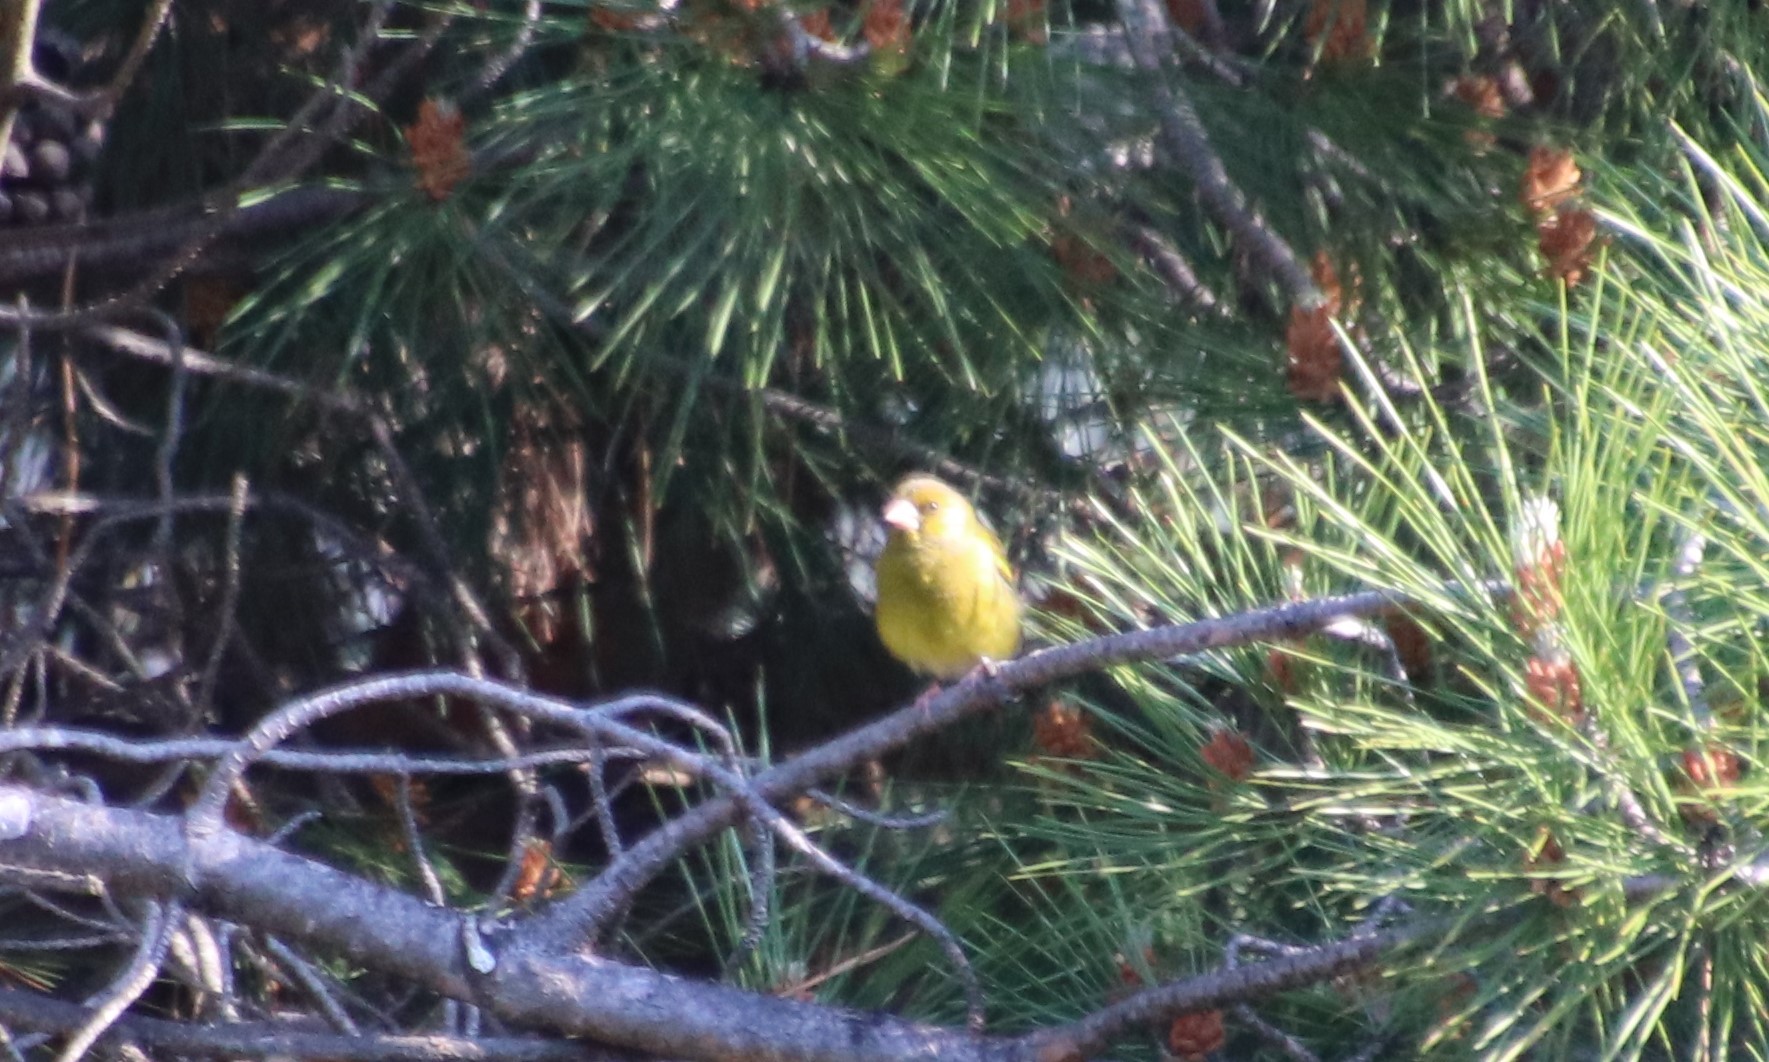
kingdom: Plantae
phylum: Tracheophyta
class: Liliopsida
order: Poales
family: Poaceae
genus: Chloris
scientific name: Chloris chloris
